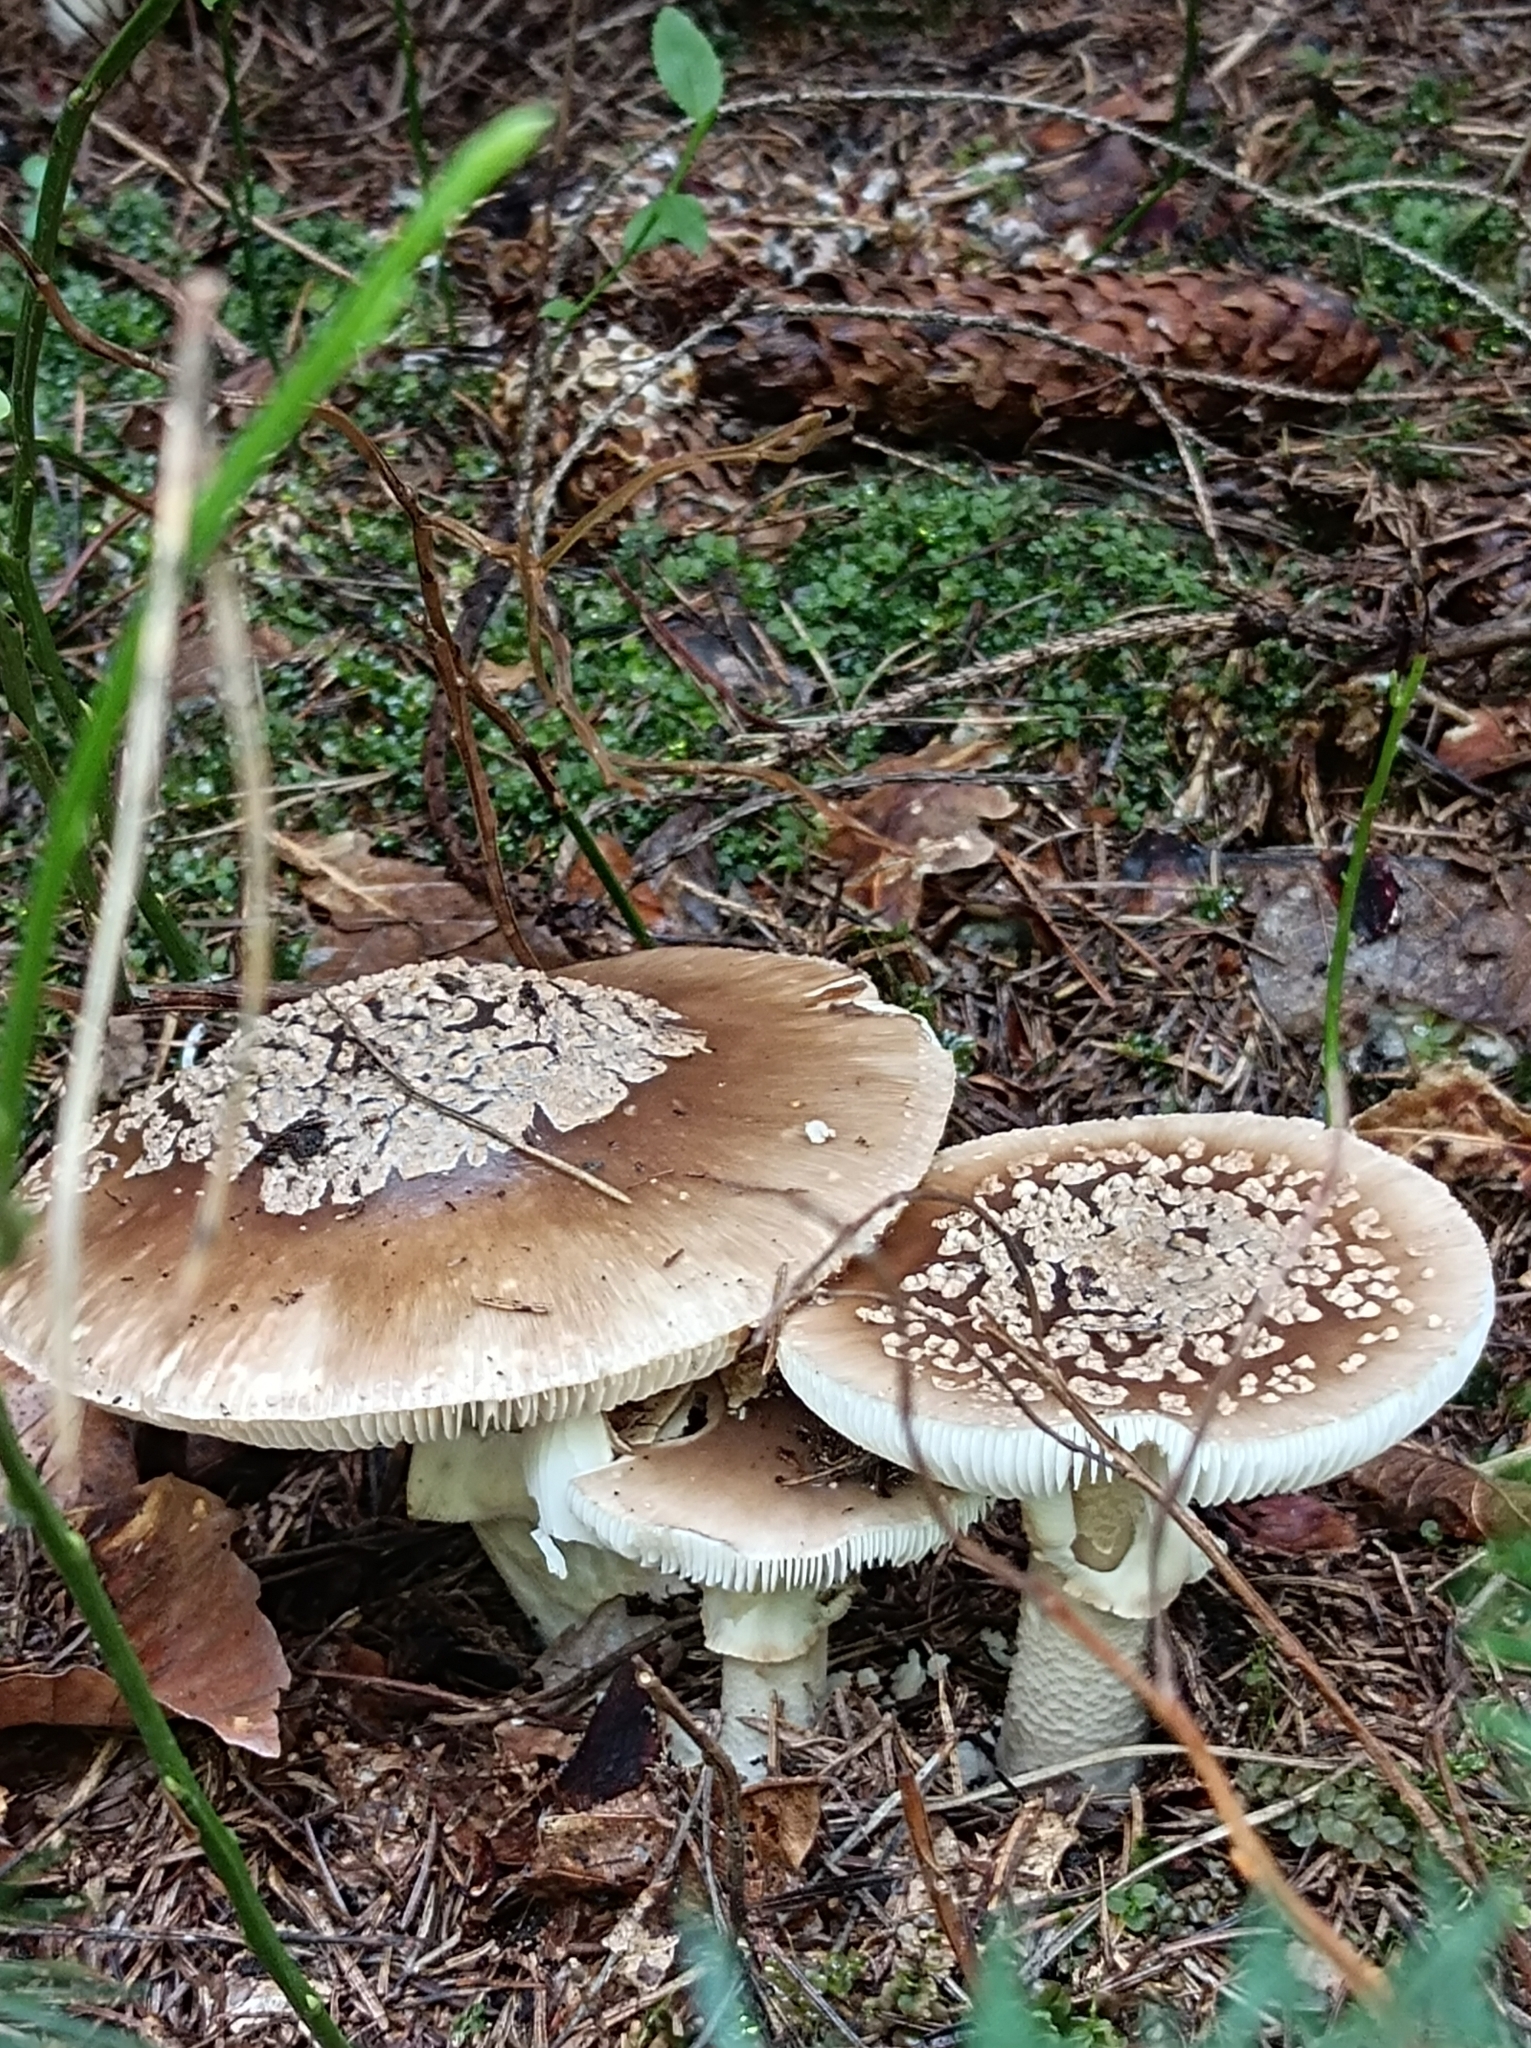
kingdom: Fungi
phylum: Basidiomycota
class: Agaricomycetes
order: Agaricales
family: Amanitaceae
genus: Amanita
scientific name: Amanita pantherina
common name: Panthercap
